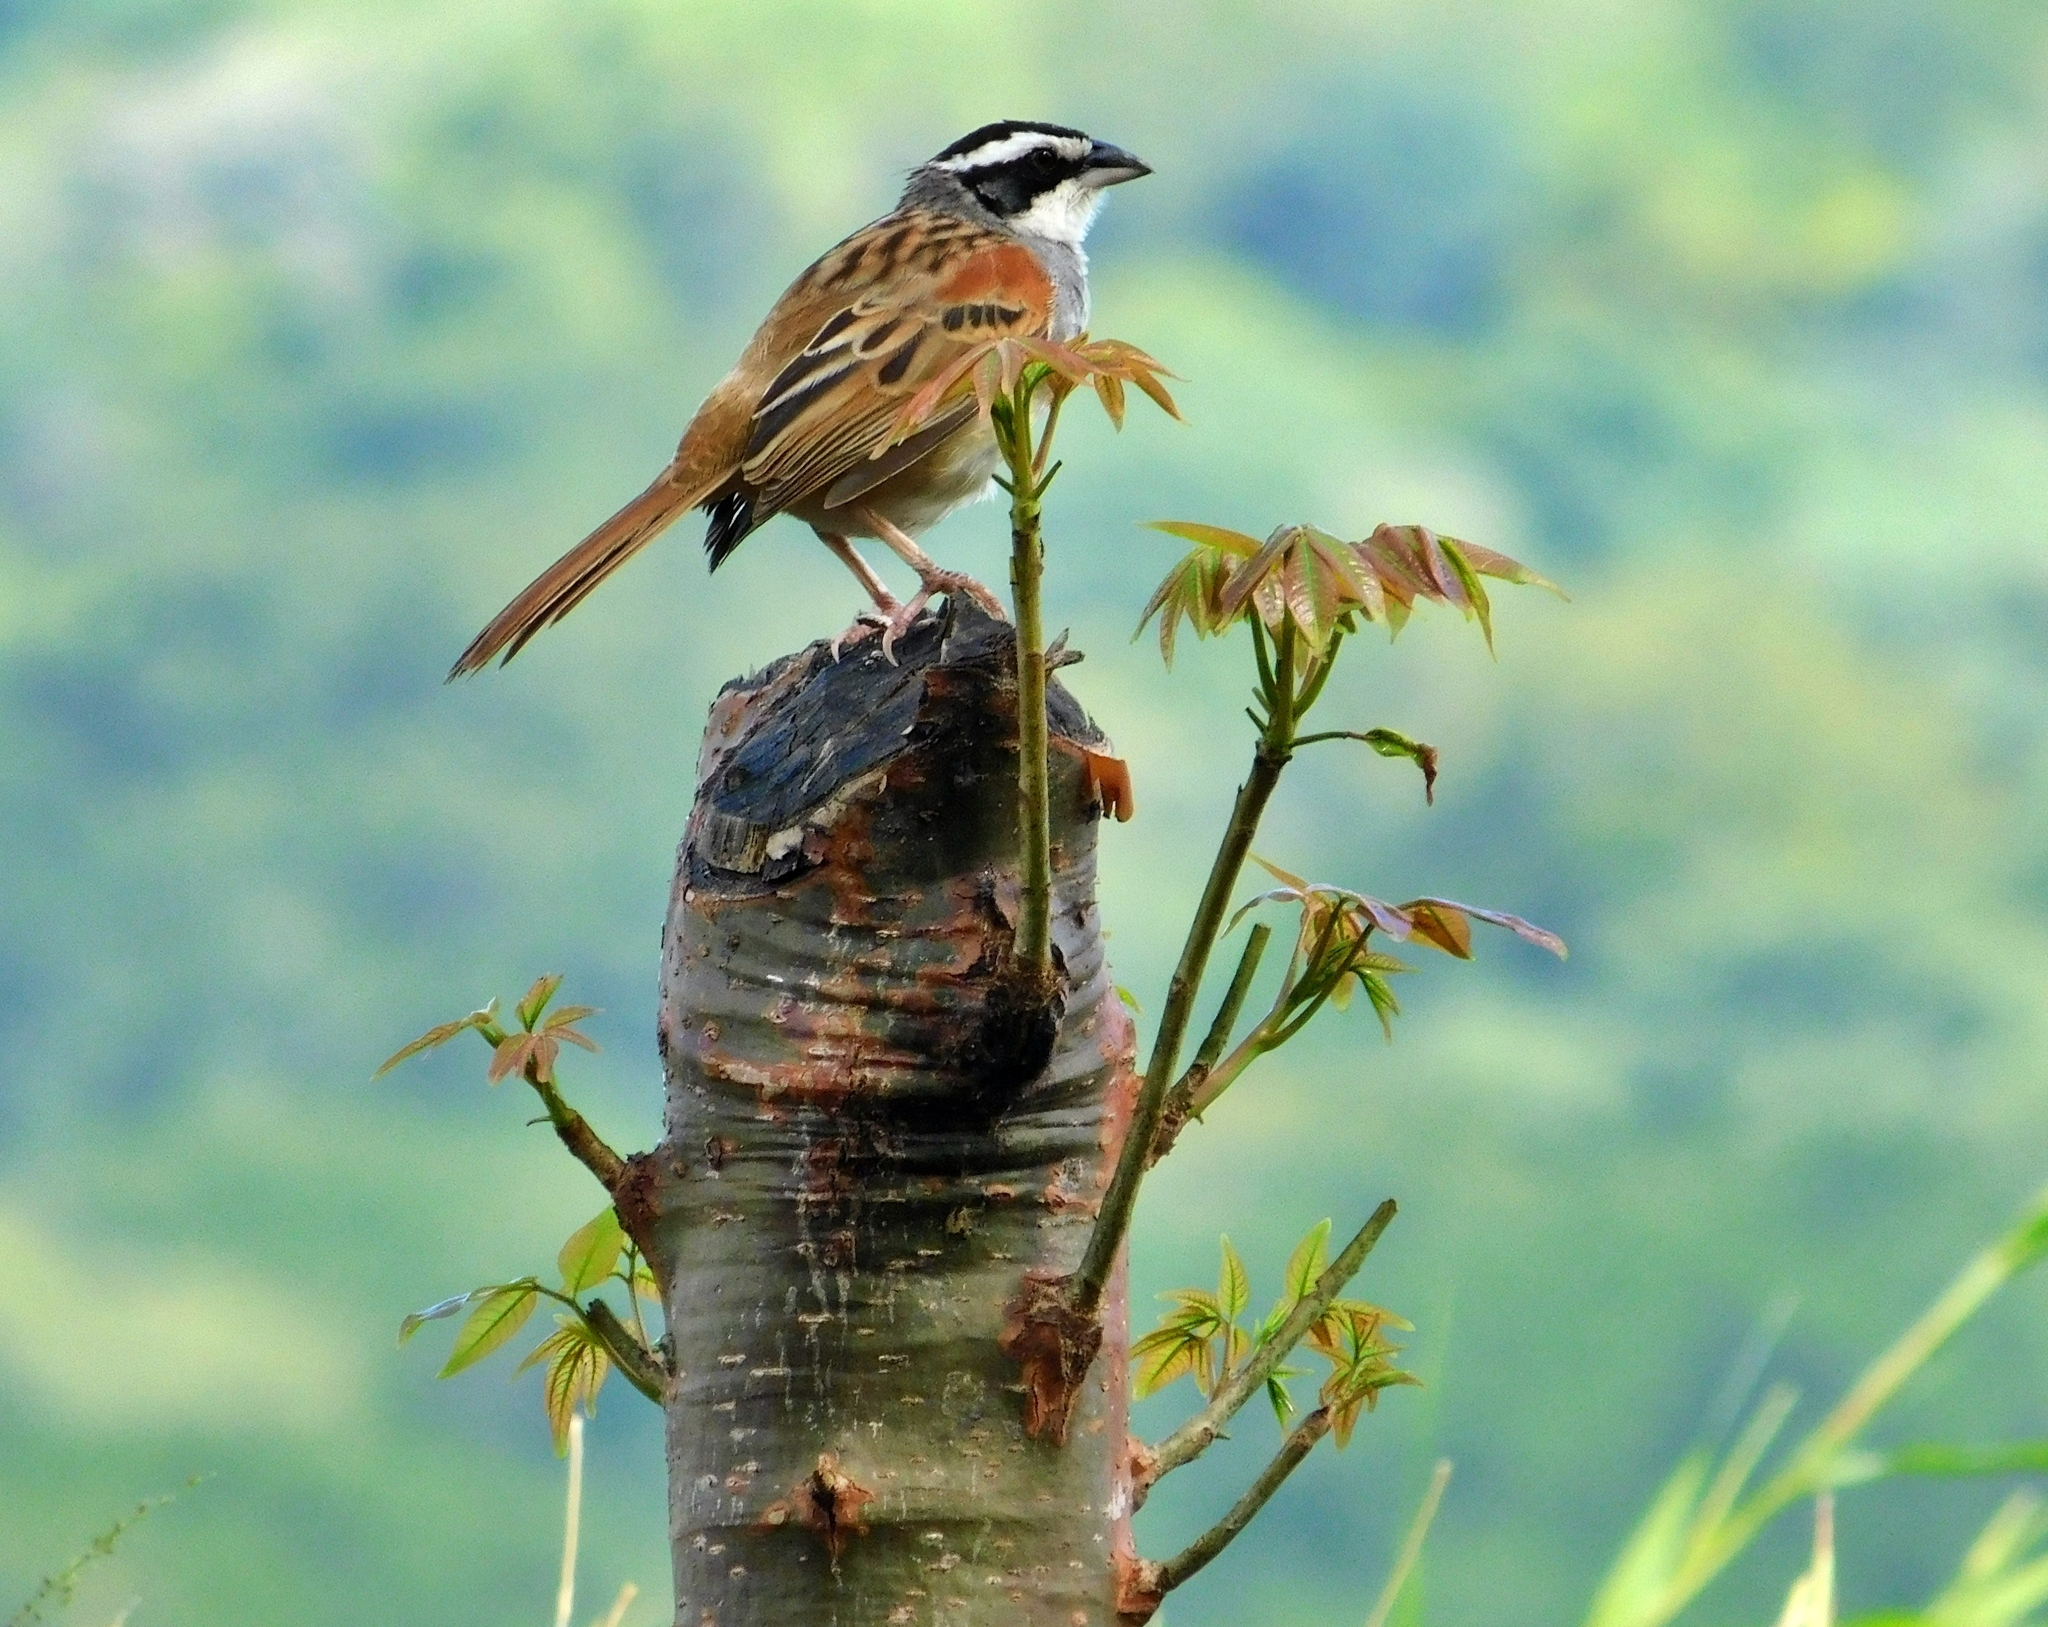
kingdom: Animalia
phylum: Chordata
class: Aves
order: Passeriformes
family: Passerellidae
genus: Peucaea
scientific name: Peucaea ruficauda
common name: Stripe-headed sparrow
